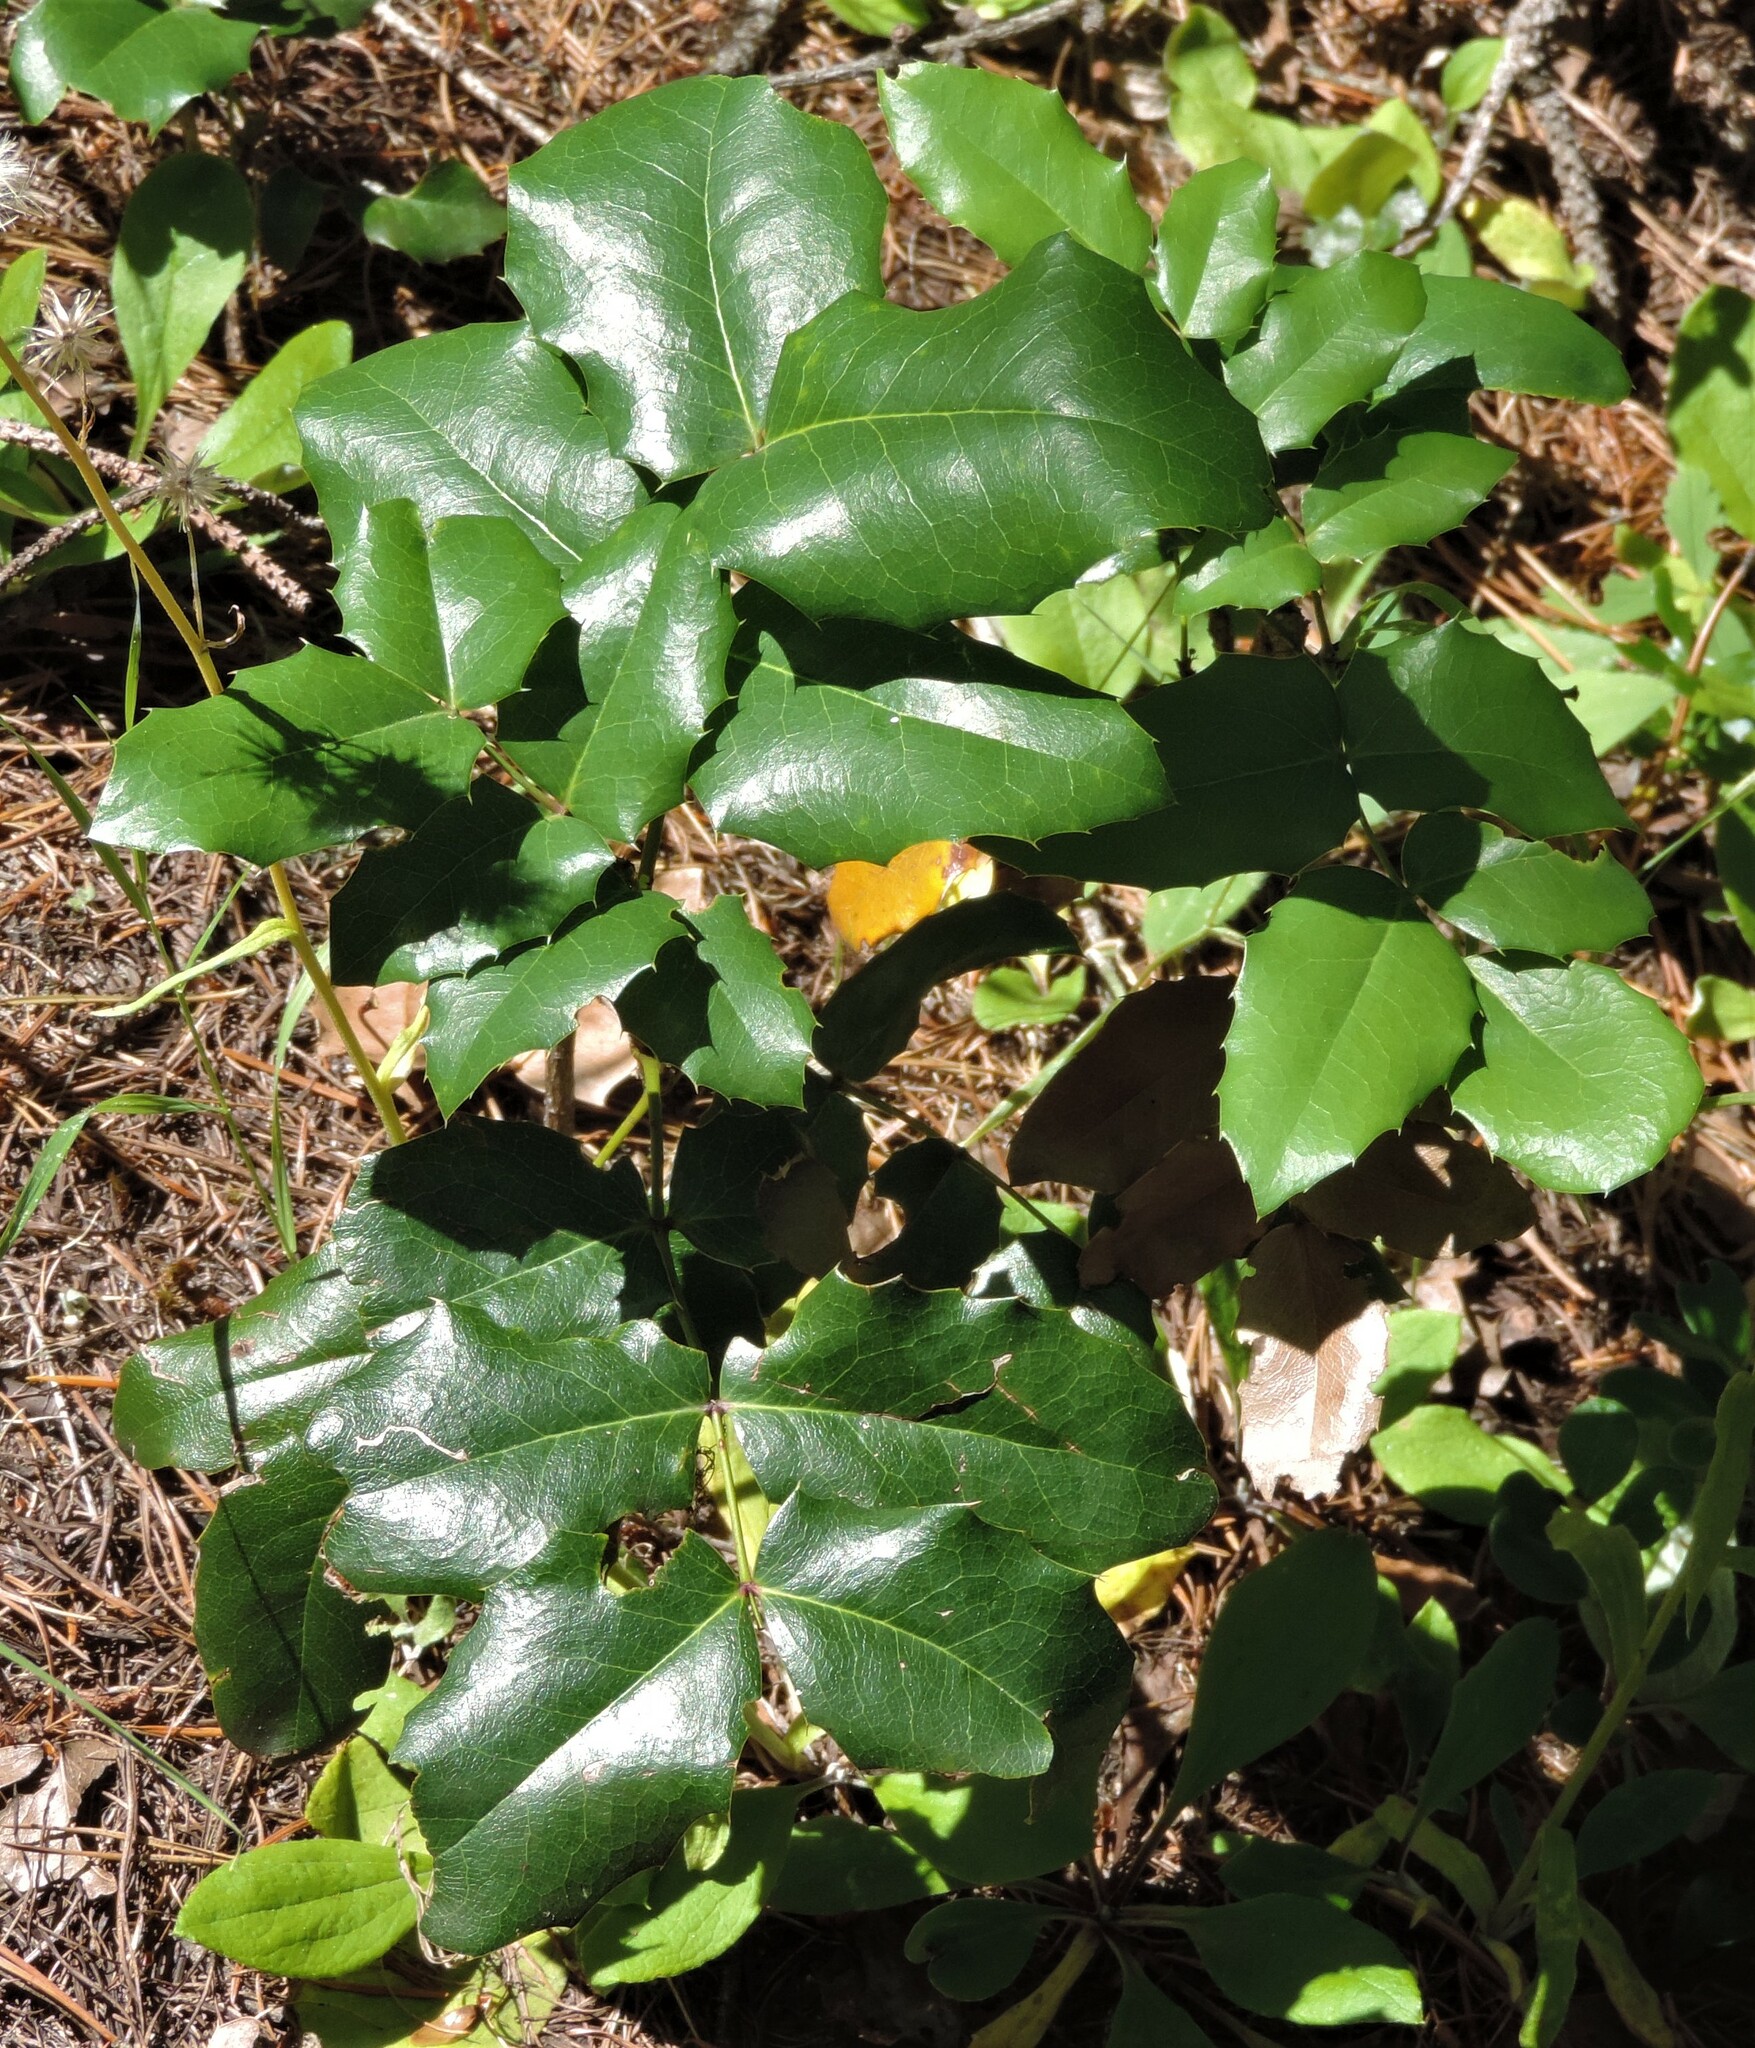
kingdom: Plantae
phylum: Tracheophyta
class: Magnoliopsida
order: Ranunculales
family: Berberidaceae
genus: Mahonia
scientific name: Mahonia aquifolium
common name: Oregon-grape
